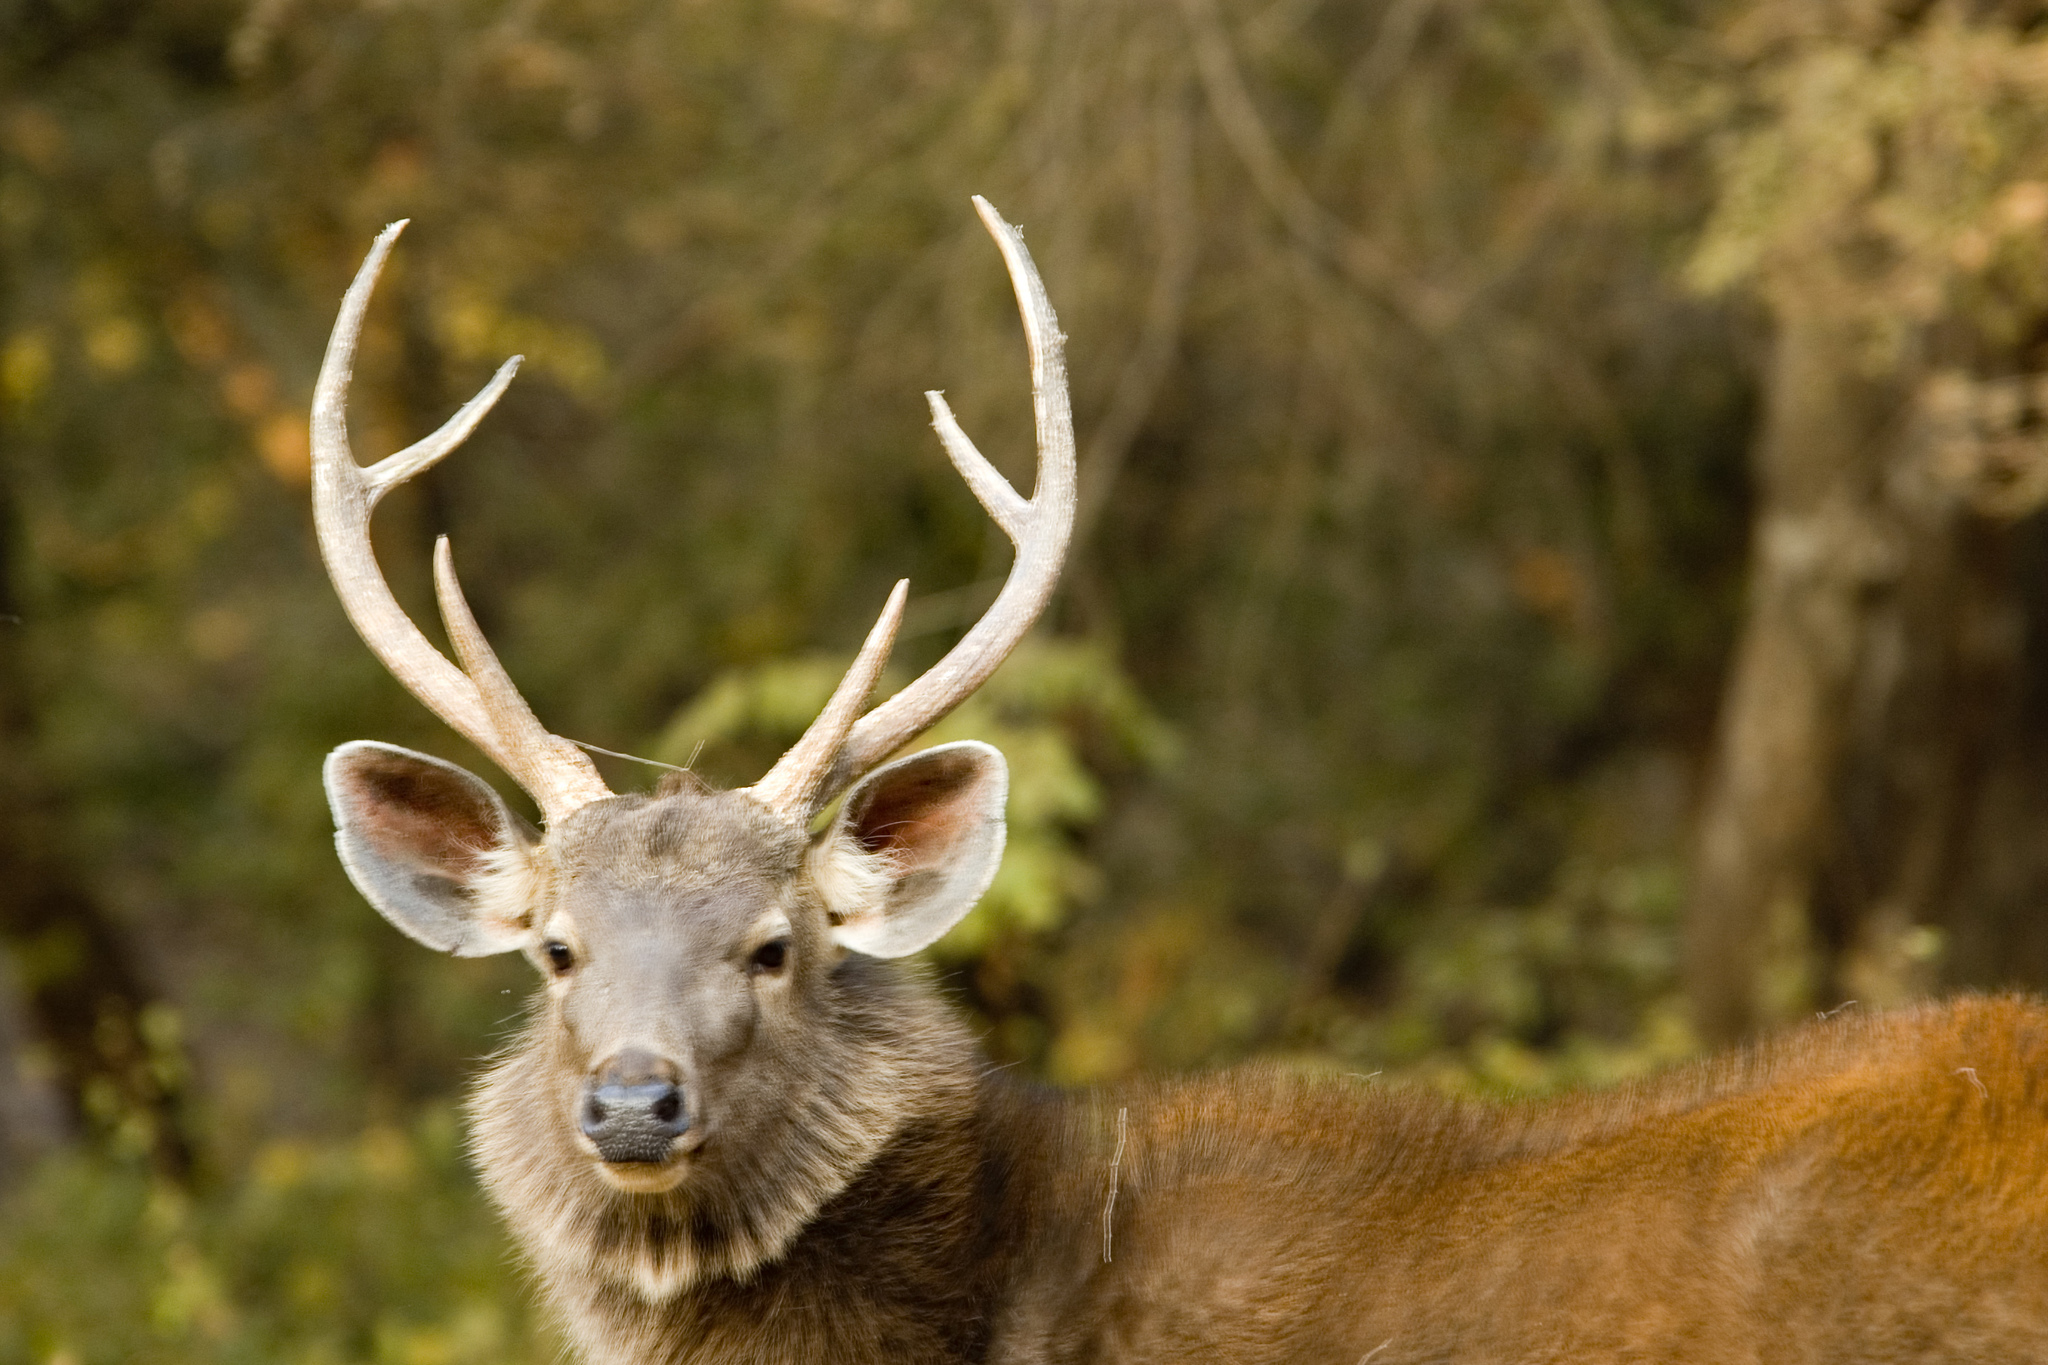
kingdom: Animalia
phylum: Chordata
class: Mammalia
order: Artiodactyla
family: Cervidae
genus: Rusa
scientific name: Rusa unicolor
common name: Sambar
